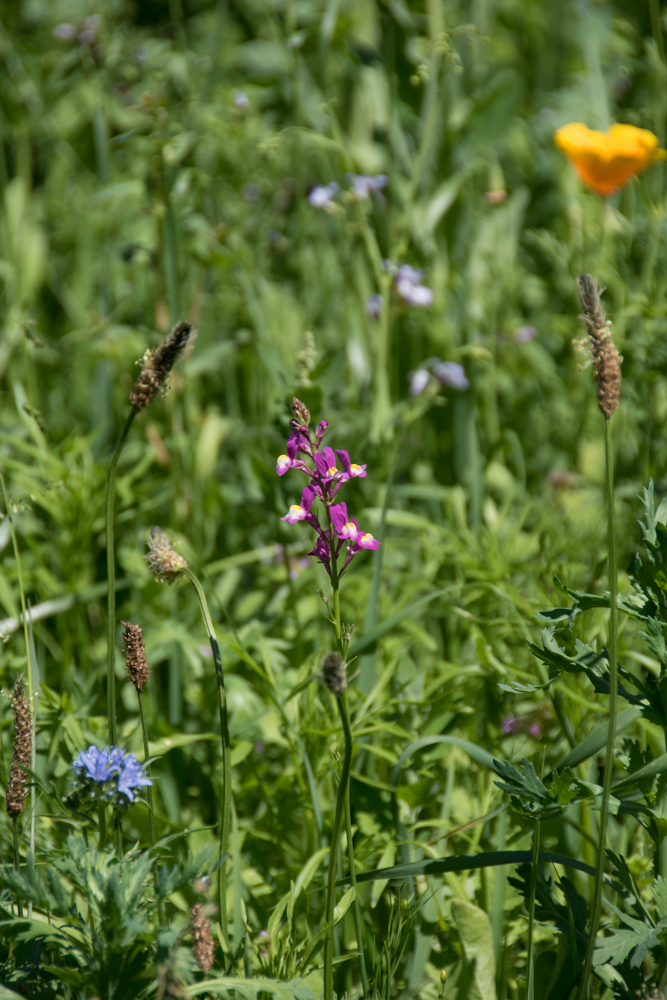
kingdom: Plantae
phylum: Tracheophyta
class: Magnoliopsida
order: Lamiales
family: Plantaginaceae
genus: Linaria
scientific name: Linaria maroccana
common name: Moroccan toadflax
